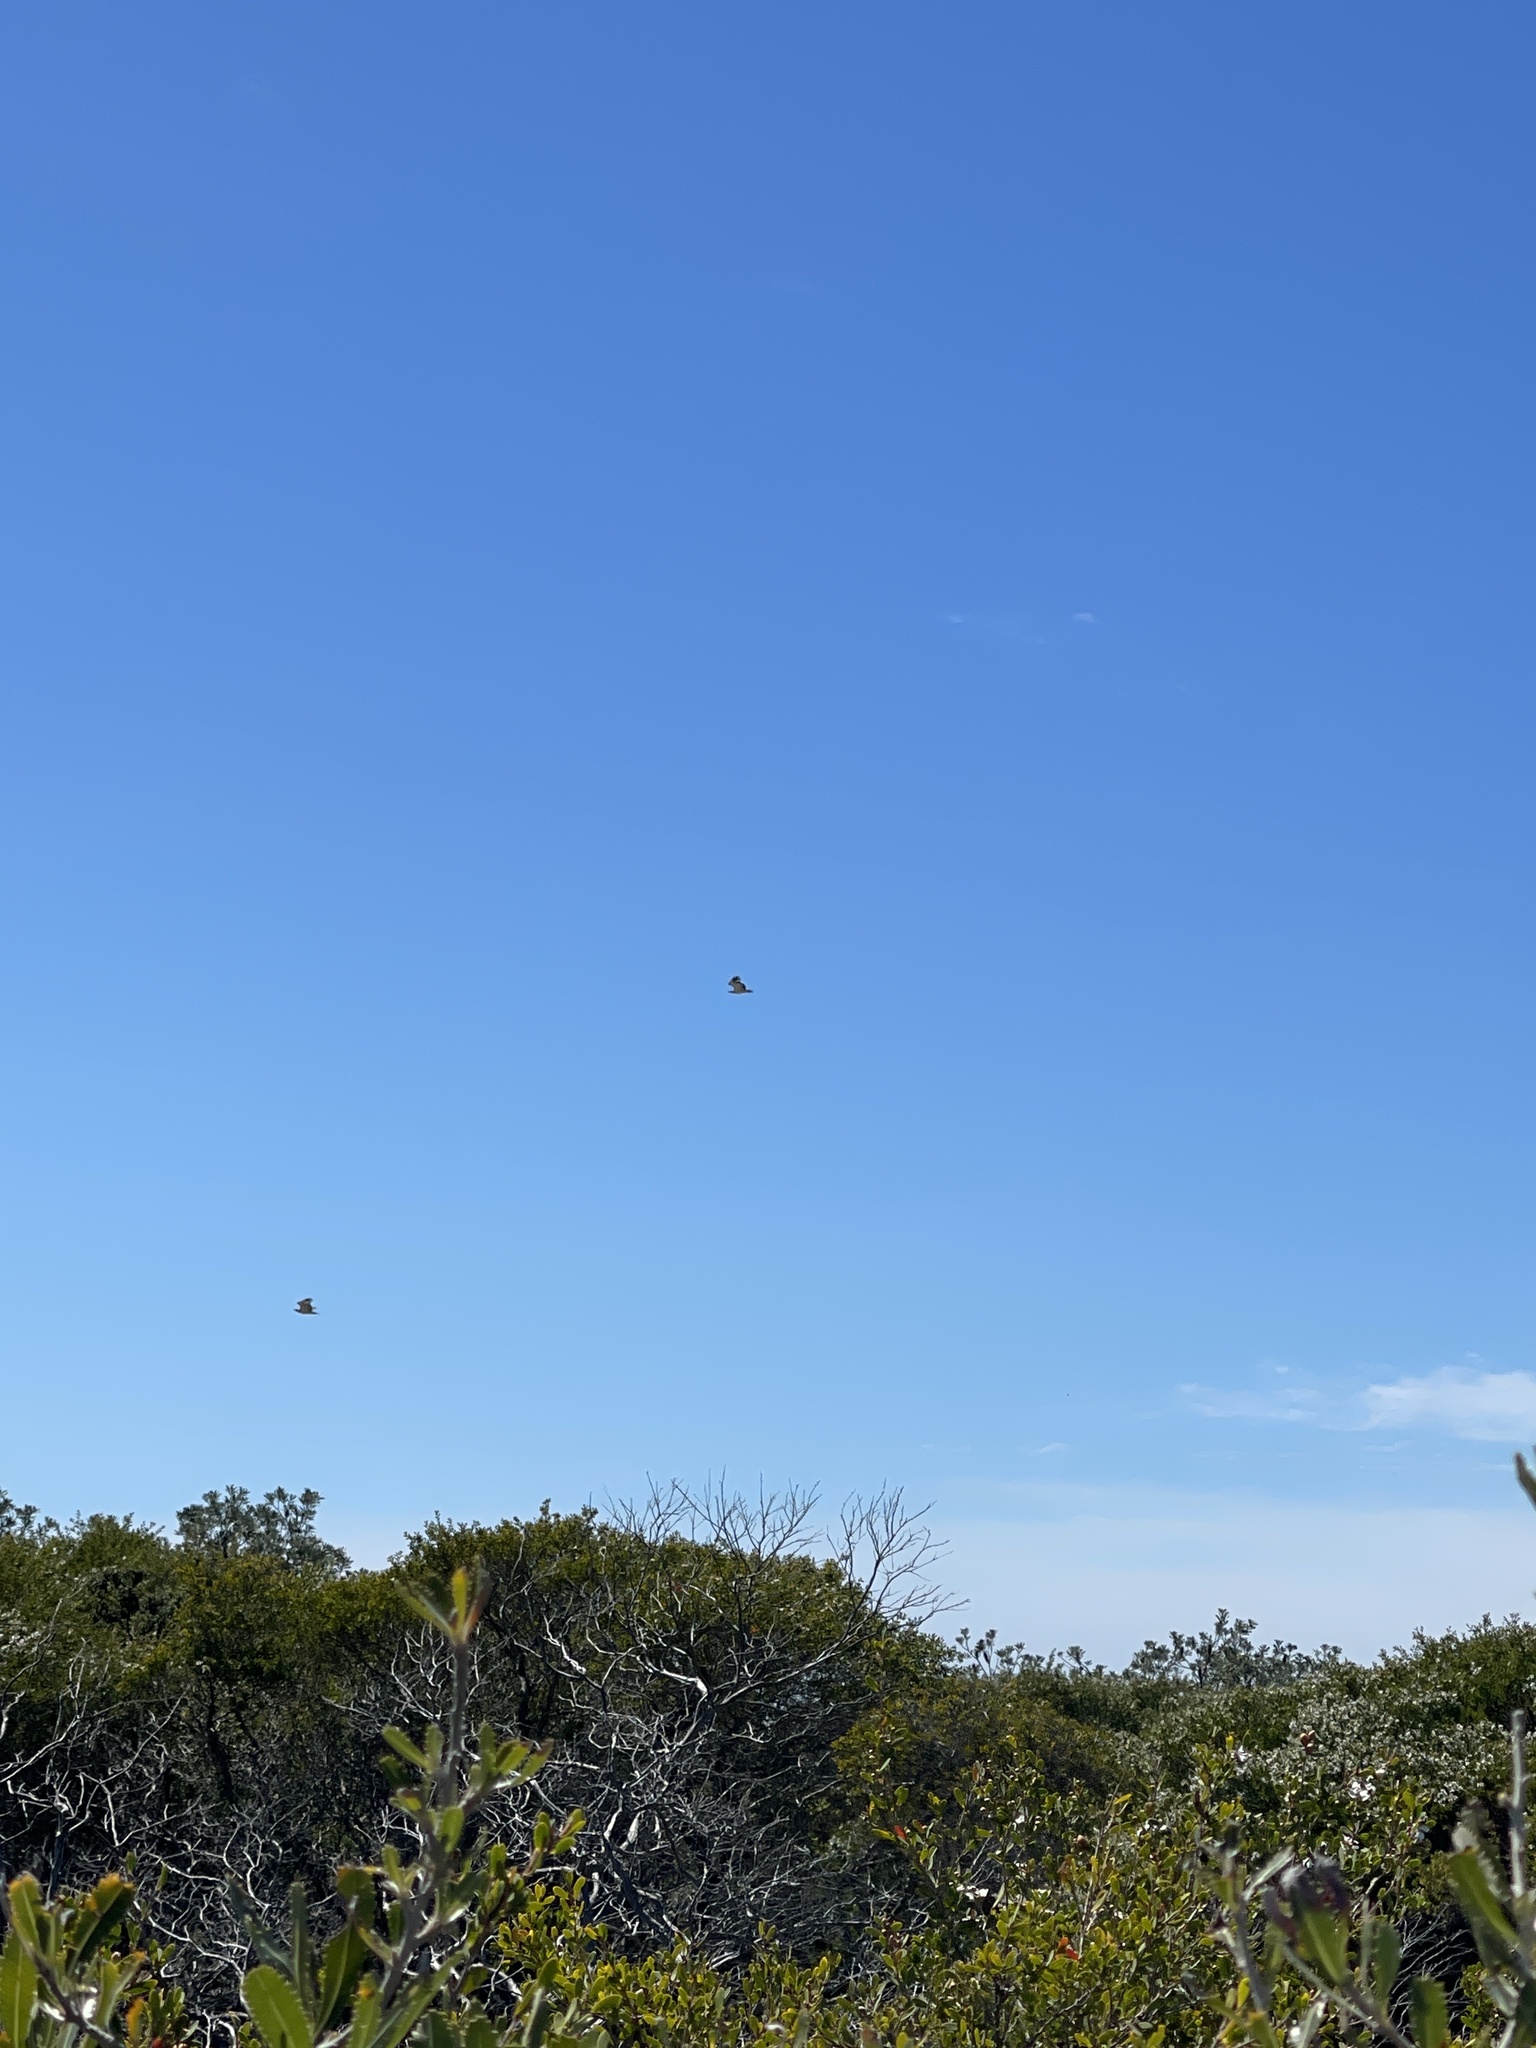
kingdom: Animalia
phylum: Chordata
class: Aves
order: Accipitriformes
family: Accipitridae
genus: Haliaeetus
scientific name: Haliaeetus leucogaster
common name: White-bellied sea eagle
